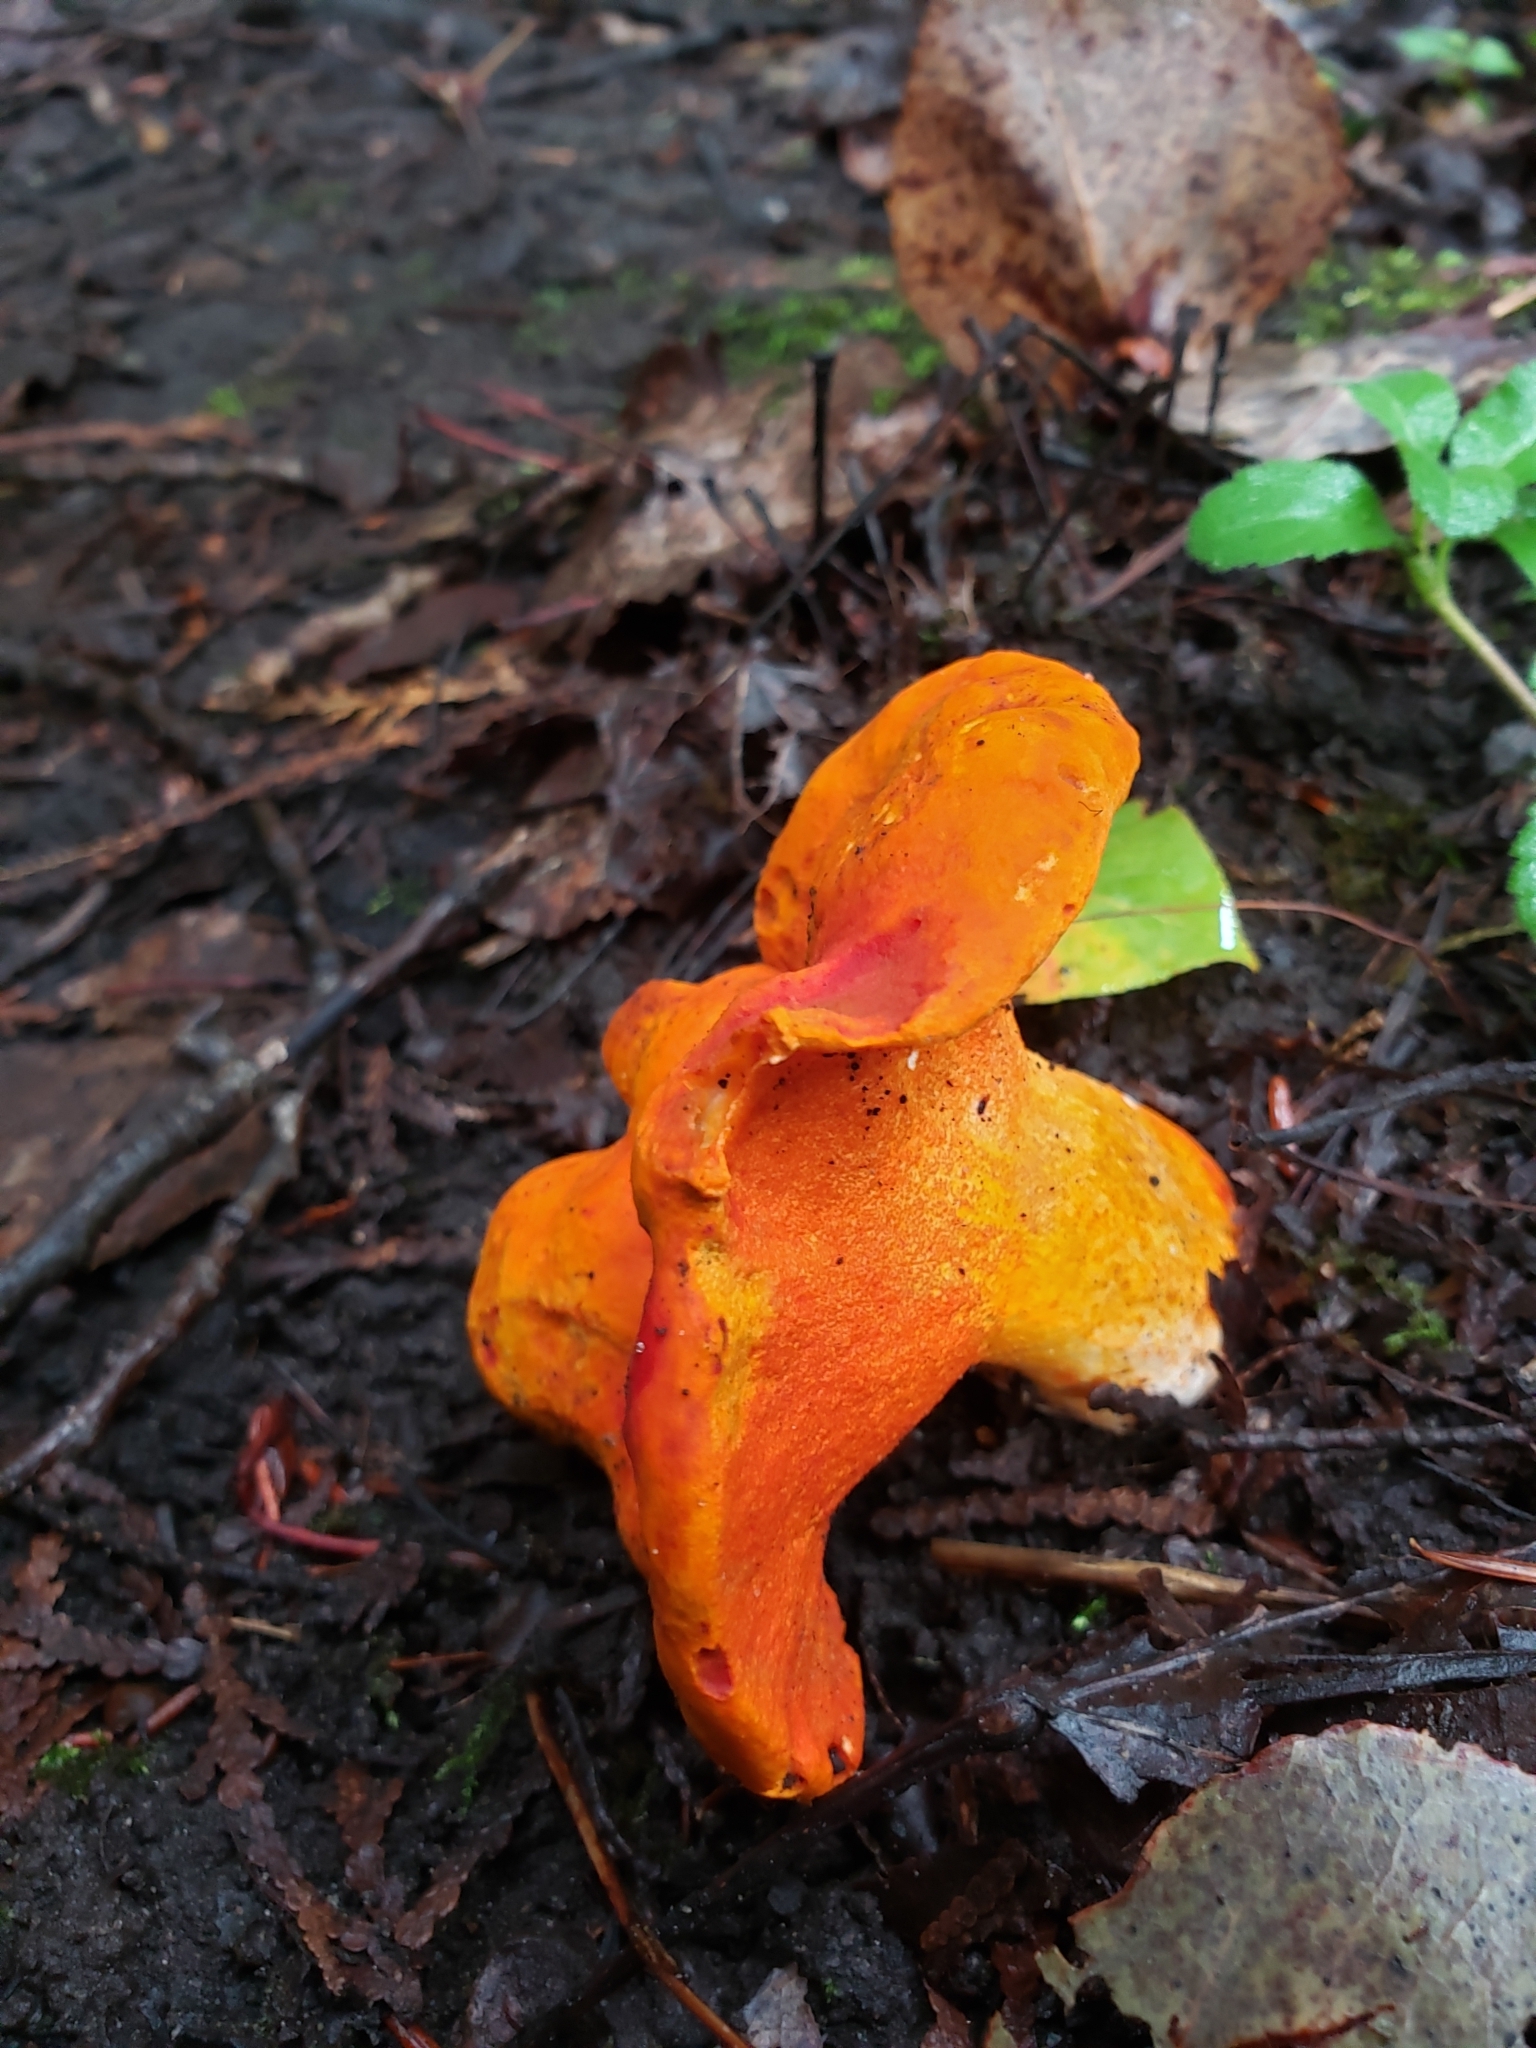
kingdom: Fungi
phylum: Ascomycota
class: Sordariomycetes
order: Hypocreales
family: Hypocreaceae
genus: Hypomyces
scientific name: Hypomyces lactifluorum
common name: Lobster mushroom
